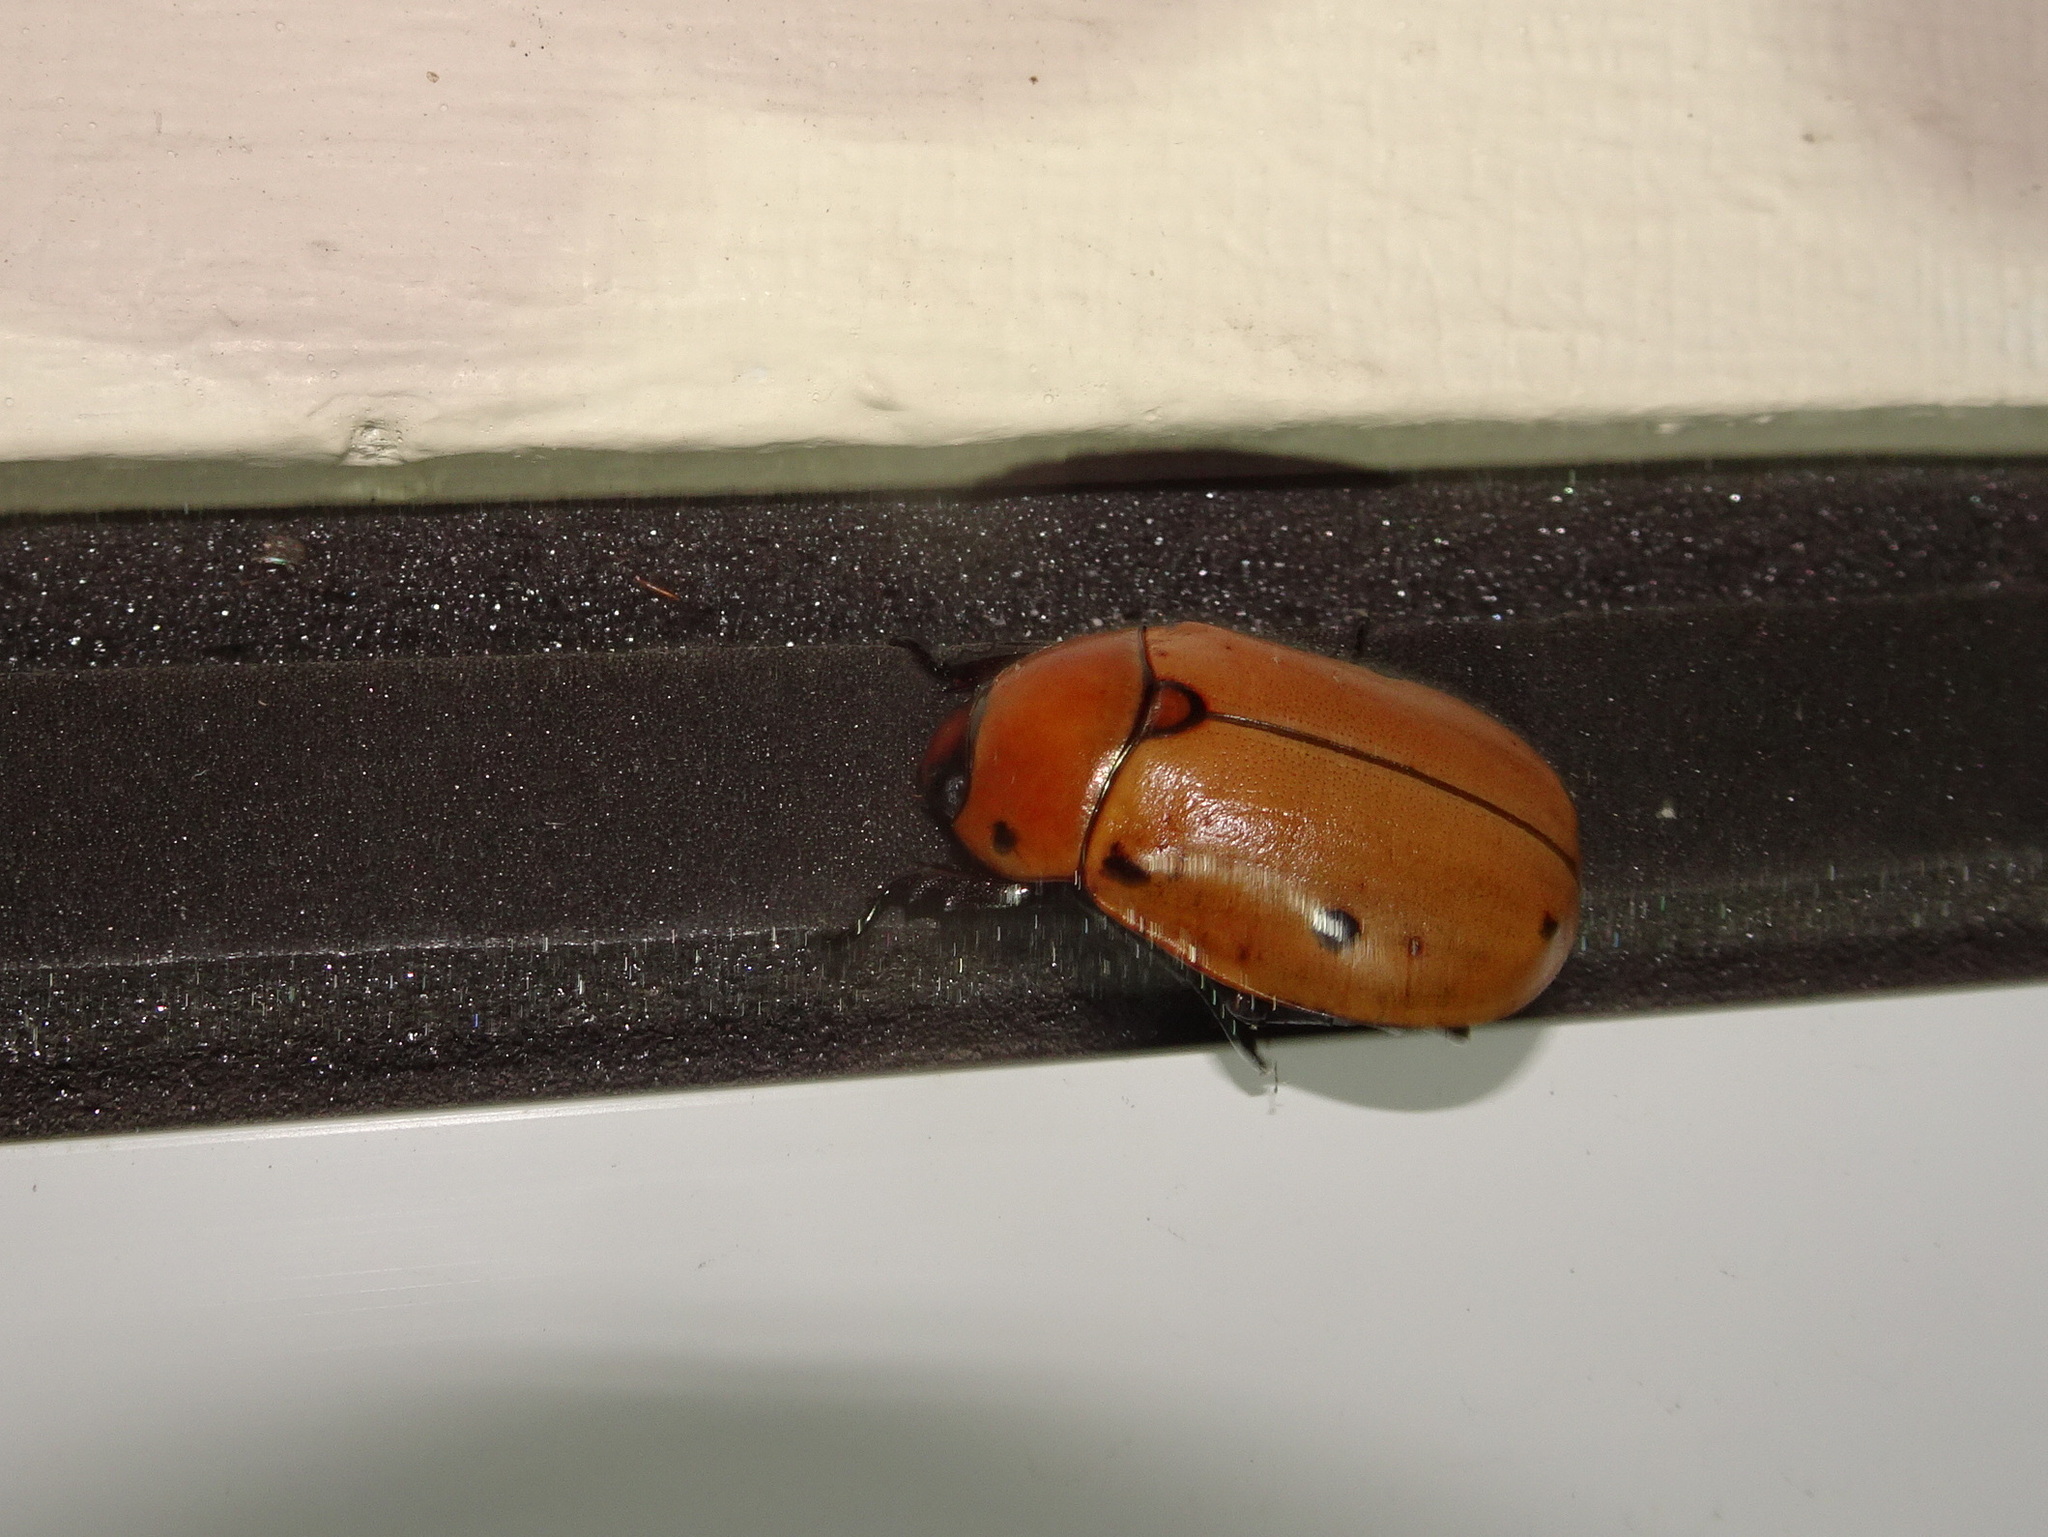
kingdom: Animalia
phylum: Arthropoda
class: Insecta
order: Coleoptera
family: Scarabaeidae
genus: Pelidnota
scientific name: Pelidnota punctata
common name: Grapevine beetle
